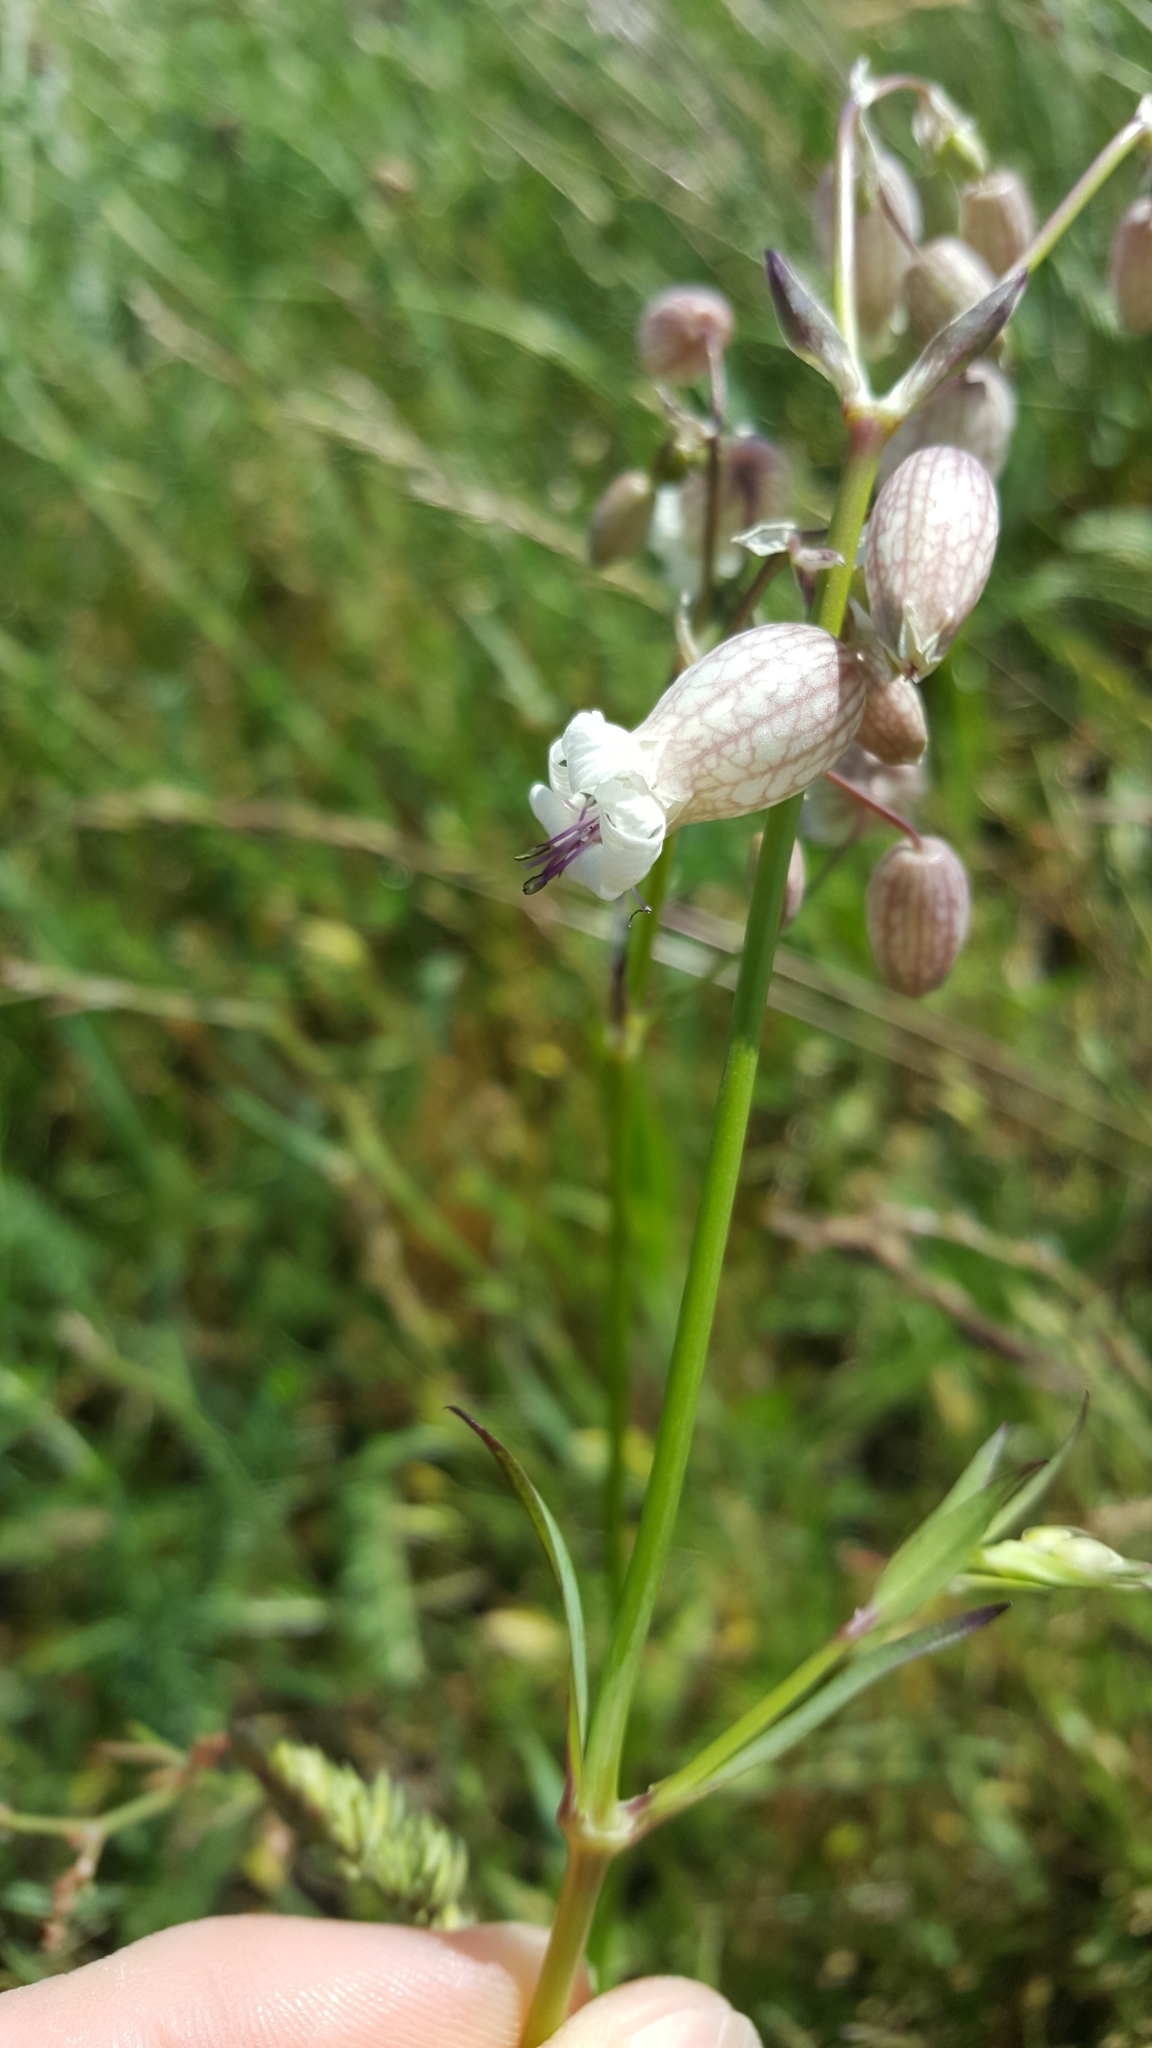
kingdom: Plantae
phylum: Tracheophyta
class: Magnoliopsida
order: Caryophyllales
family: Caryophyllaceae
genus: Silene
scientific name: Silene vulgaris
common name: Bladder campion
